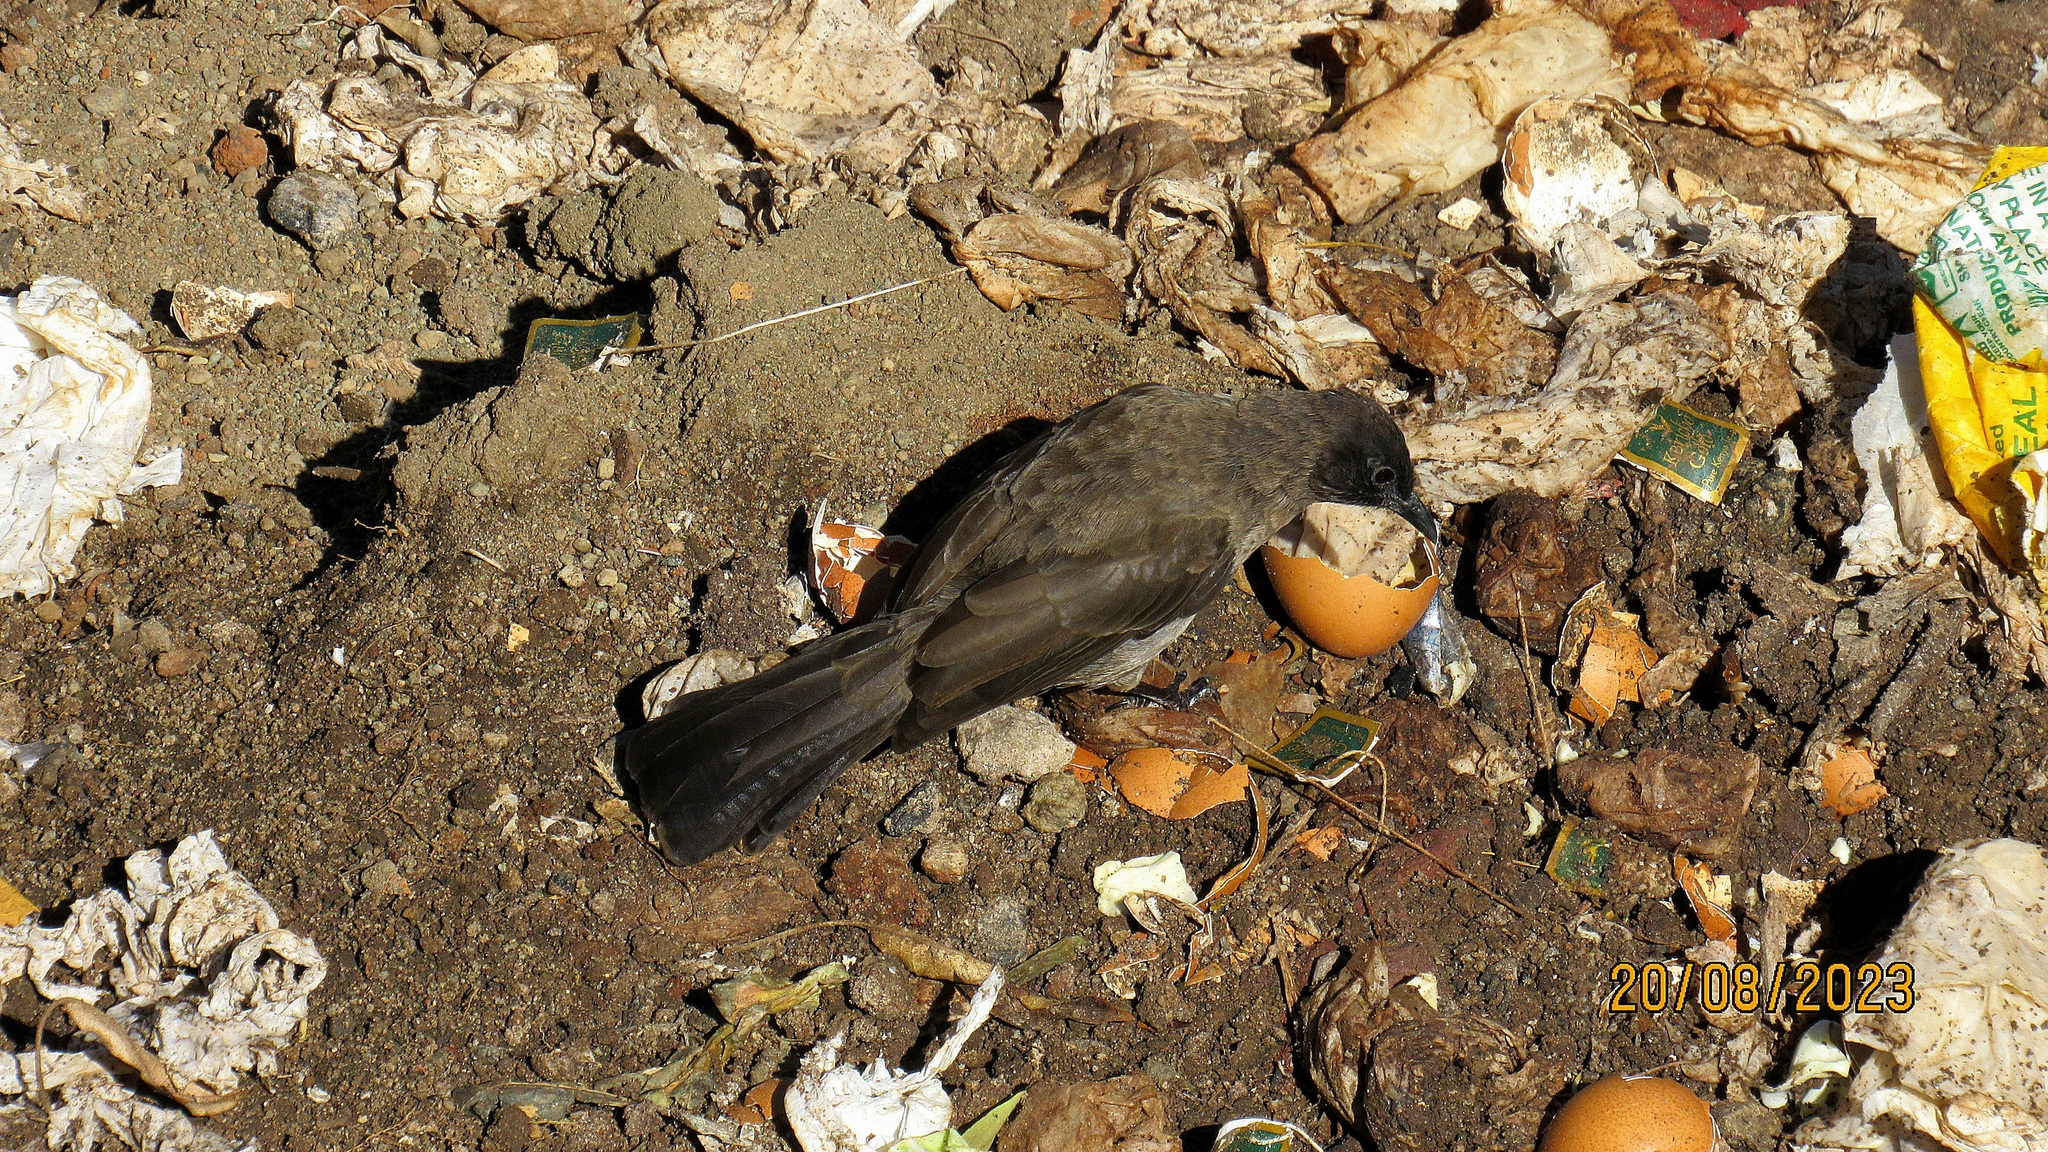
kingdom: Animalia
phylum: Chordata
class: Aves
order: Passeriformes
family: Pycnonotidae
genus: Pycnonotus
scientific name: Pycnonotus barbatus
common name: Common bulbul
